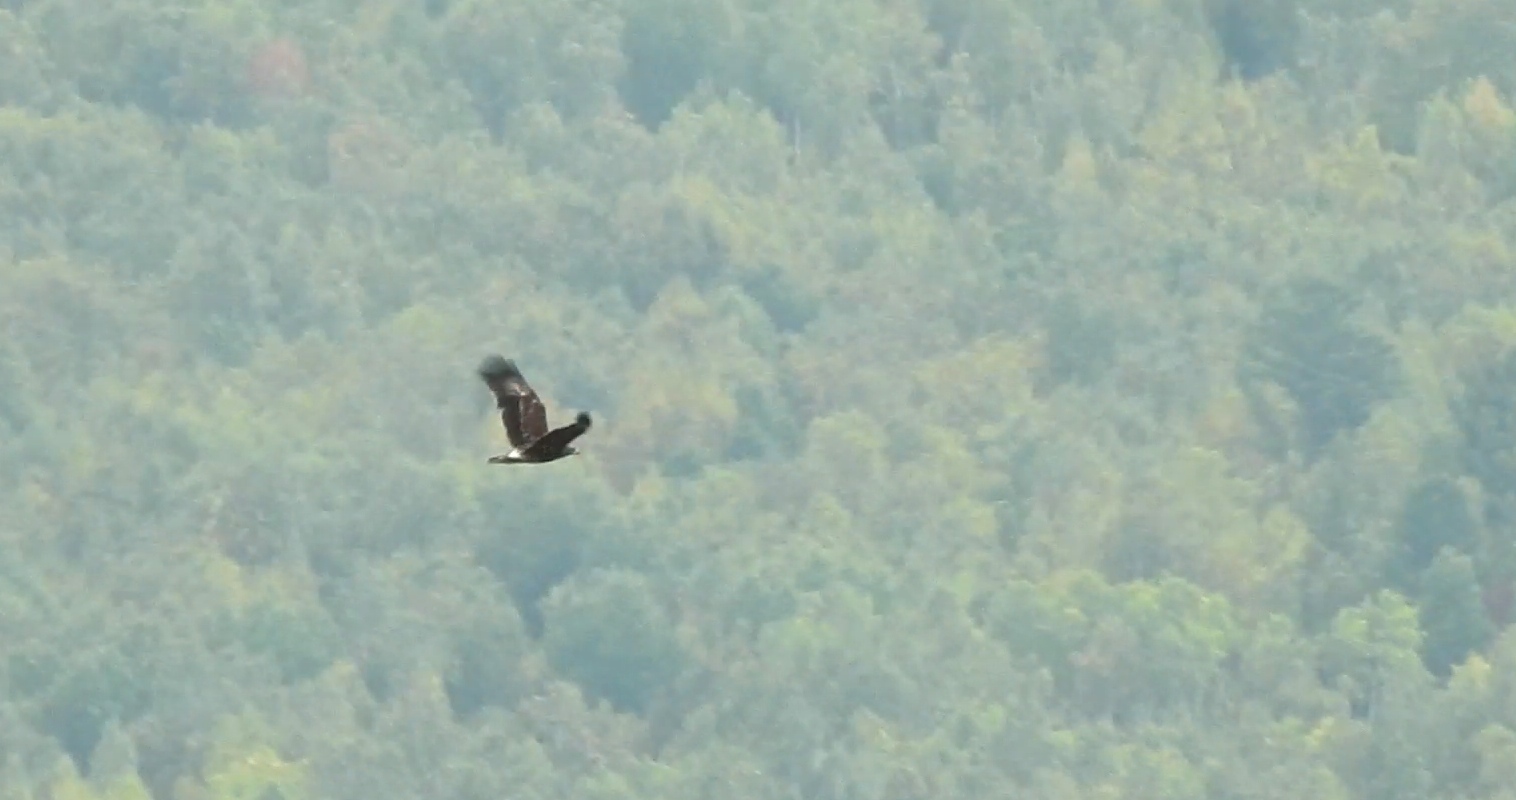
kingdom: Animalia
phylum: Chordata
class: Aves
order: Accipitriformes
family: Accipitridae
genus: Aquila
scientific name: Aquila clanga
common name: Greater spotted eagle
